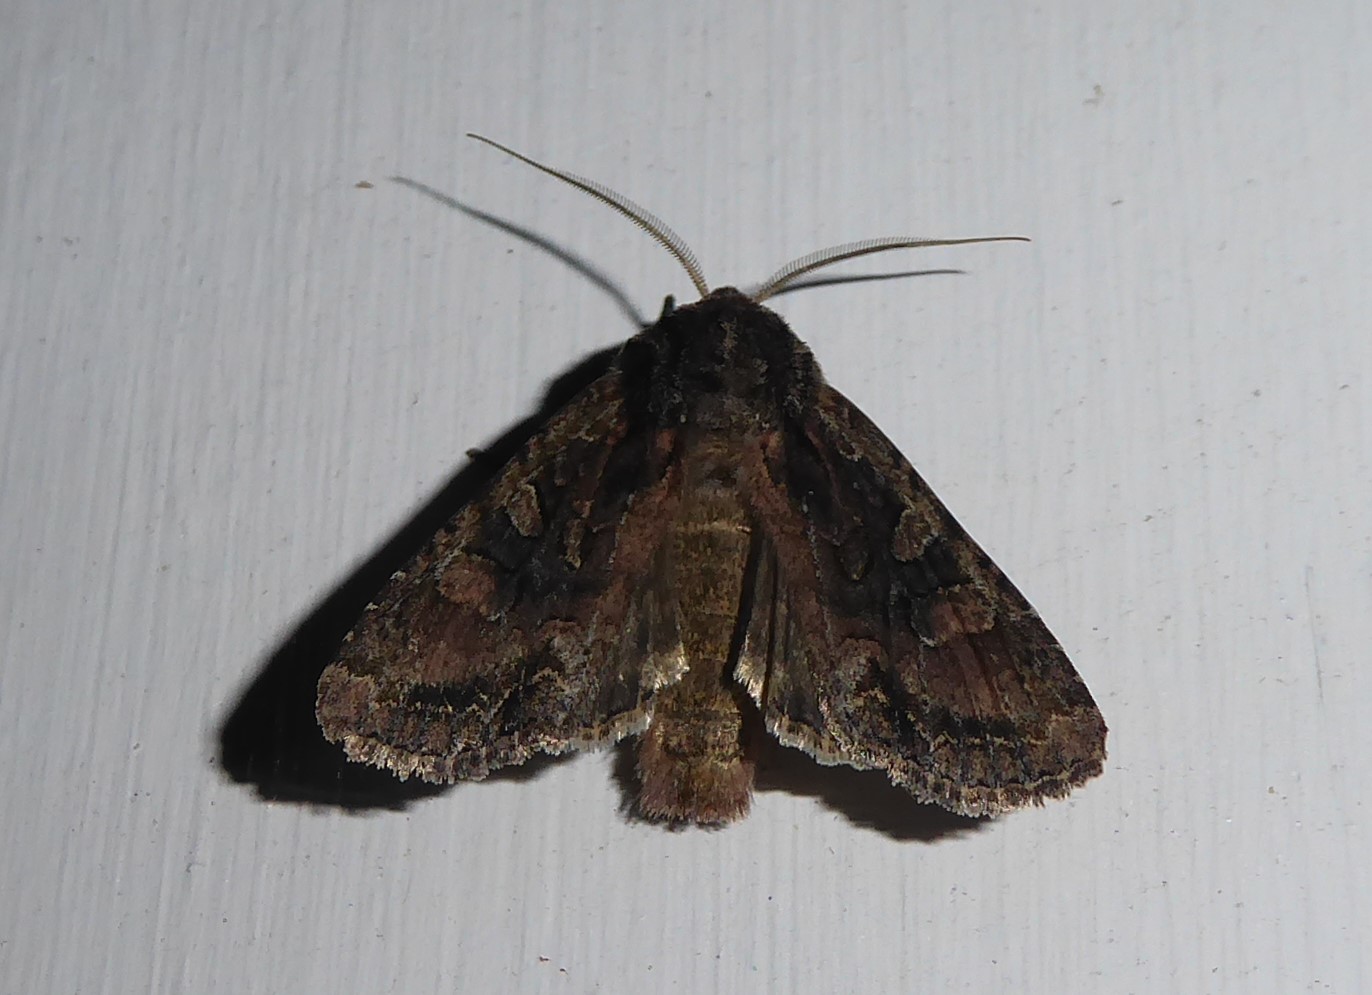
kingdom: Animalia
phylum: Arthropoda
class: Insecta
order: Lepidoptera
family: Noctuidae
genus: Ichneutica
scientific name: Ichneutica mutans
